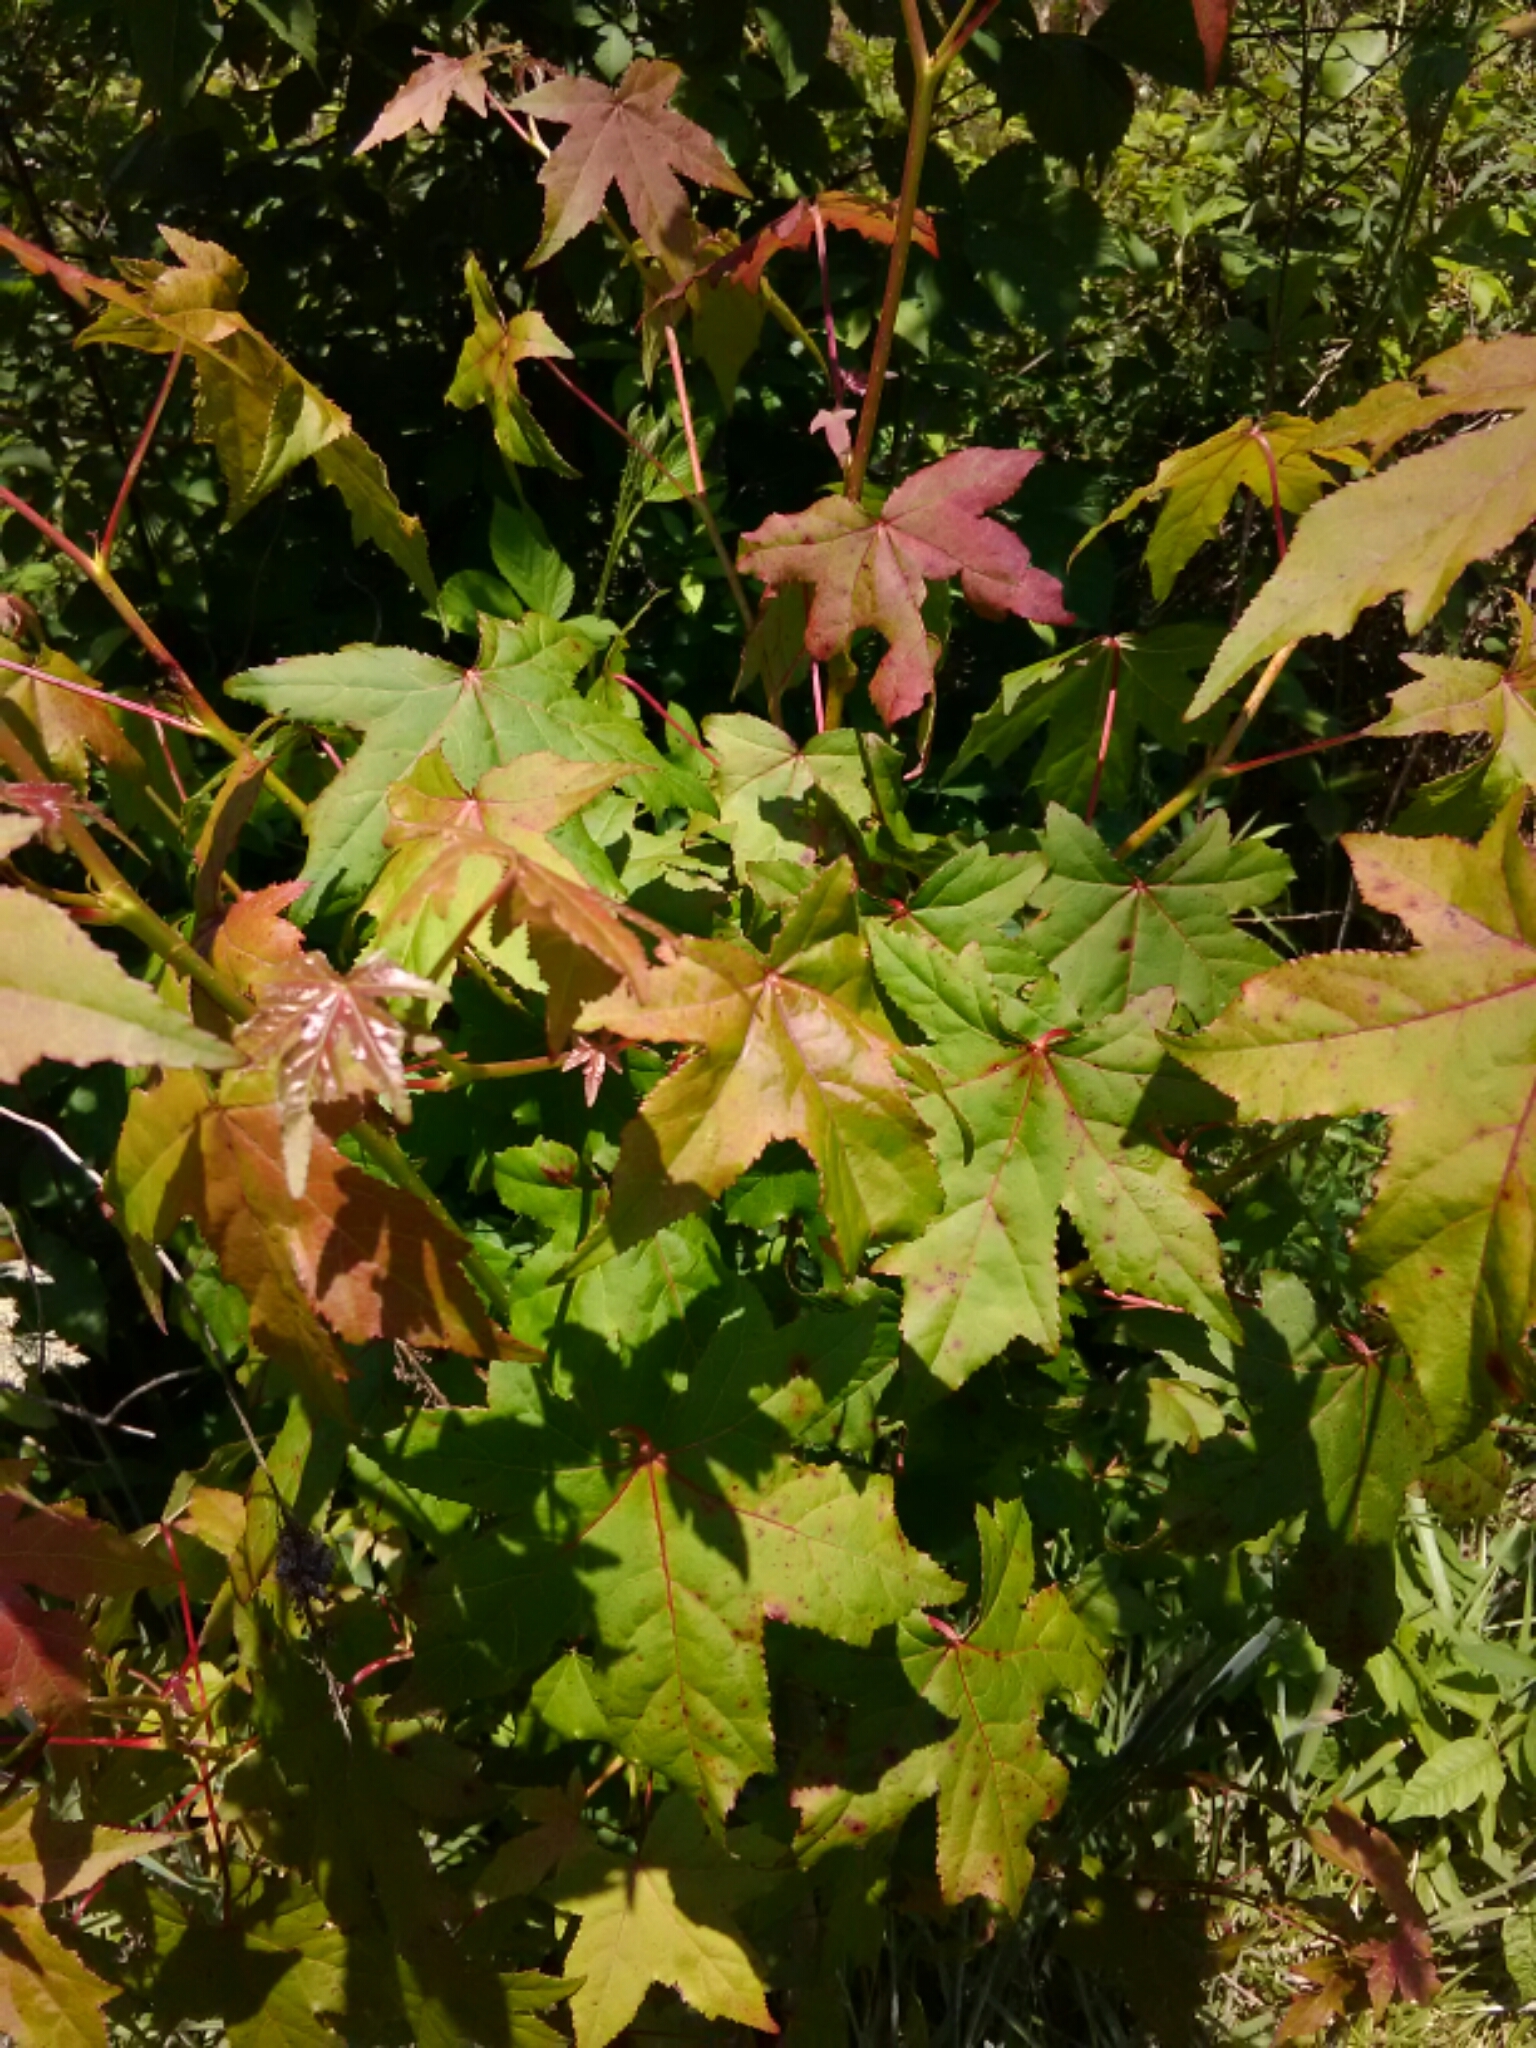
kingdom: Plantae
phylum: Tracheophyta
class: Magnoliopsida
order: Saxifragales
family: Altingiaceae
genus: Liquidambar
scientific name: Liquidambar styraciflua
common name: Sweet gum
